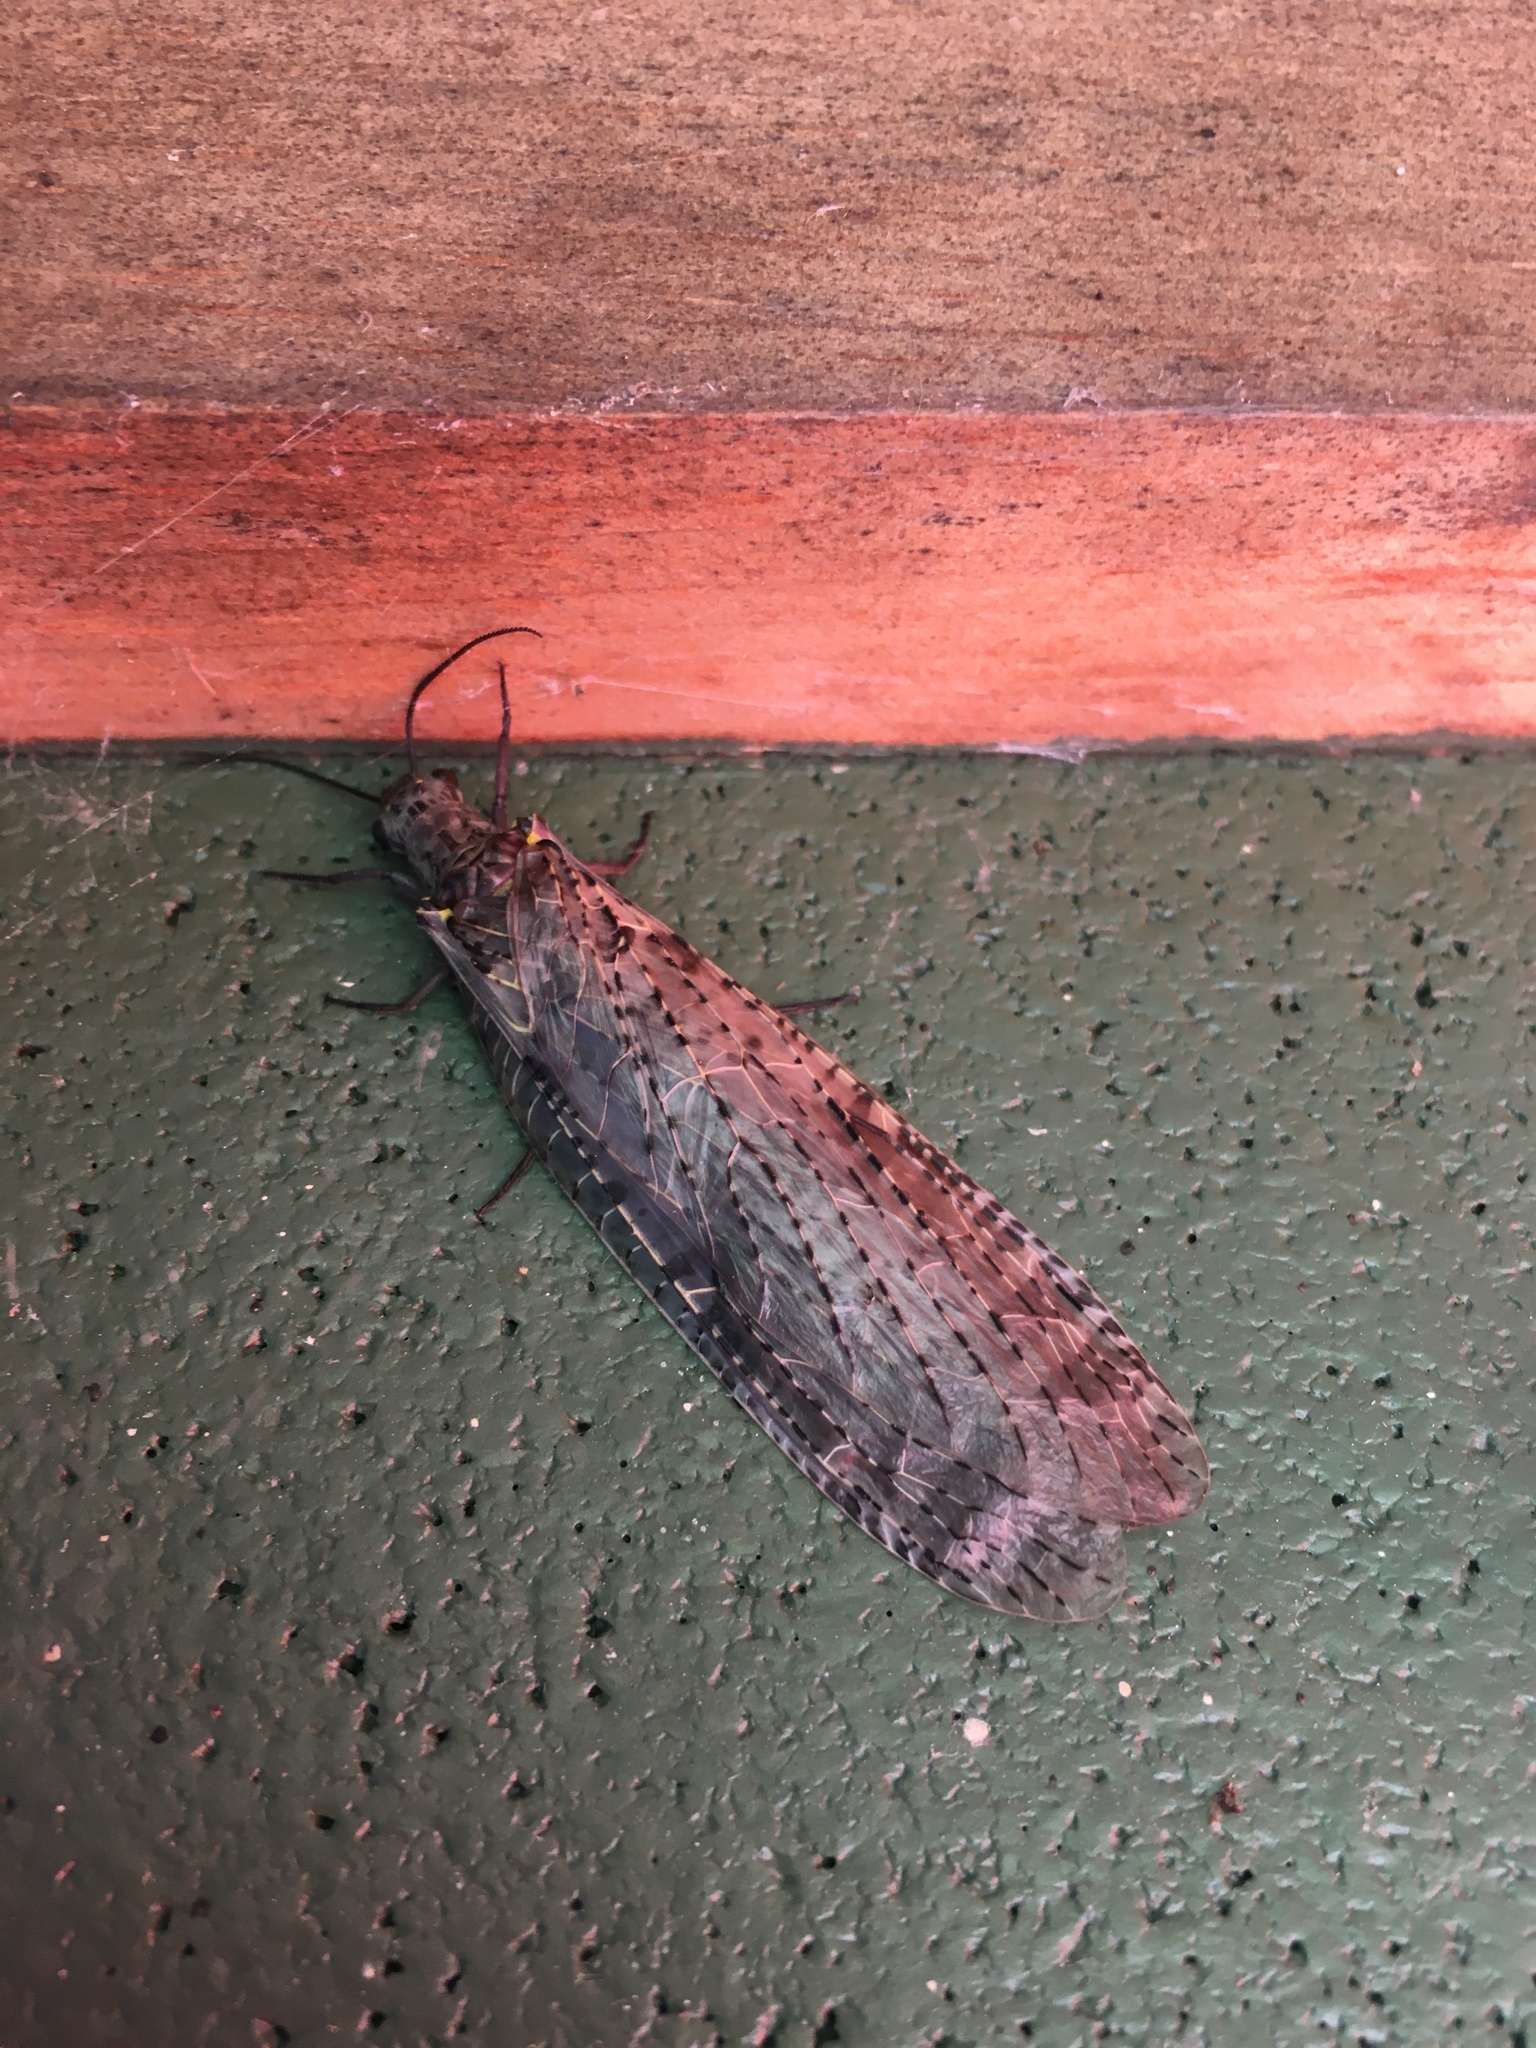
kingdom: Animalia
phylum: Arthropoda
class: Insecta
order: Megaloptera
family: Corydalidae
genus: Chauliodes
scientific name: Chauliodes rastricornis
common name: Spring fishfly
